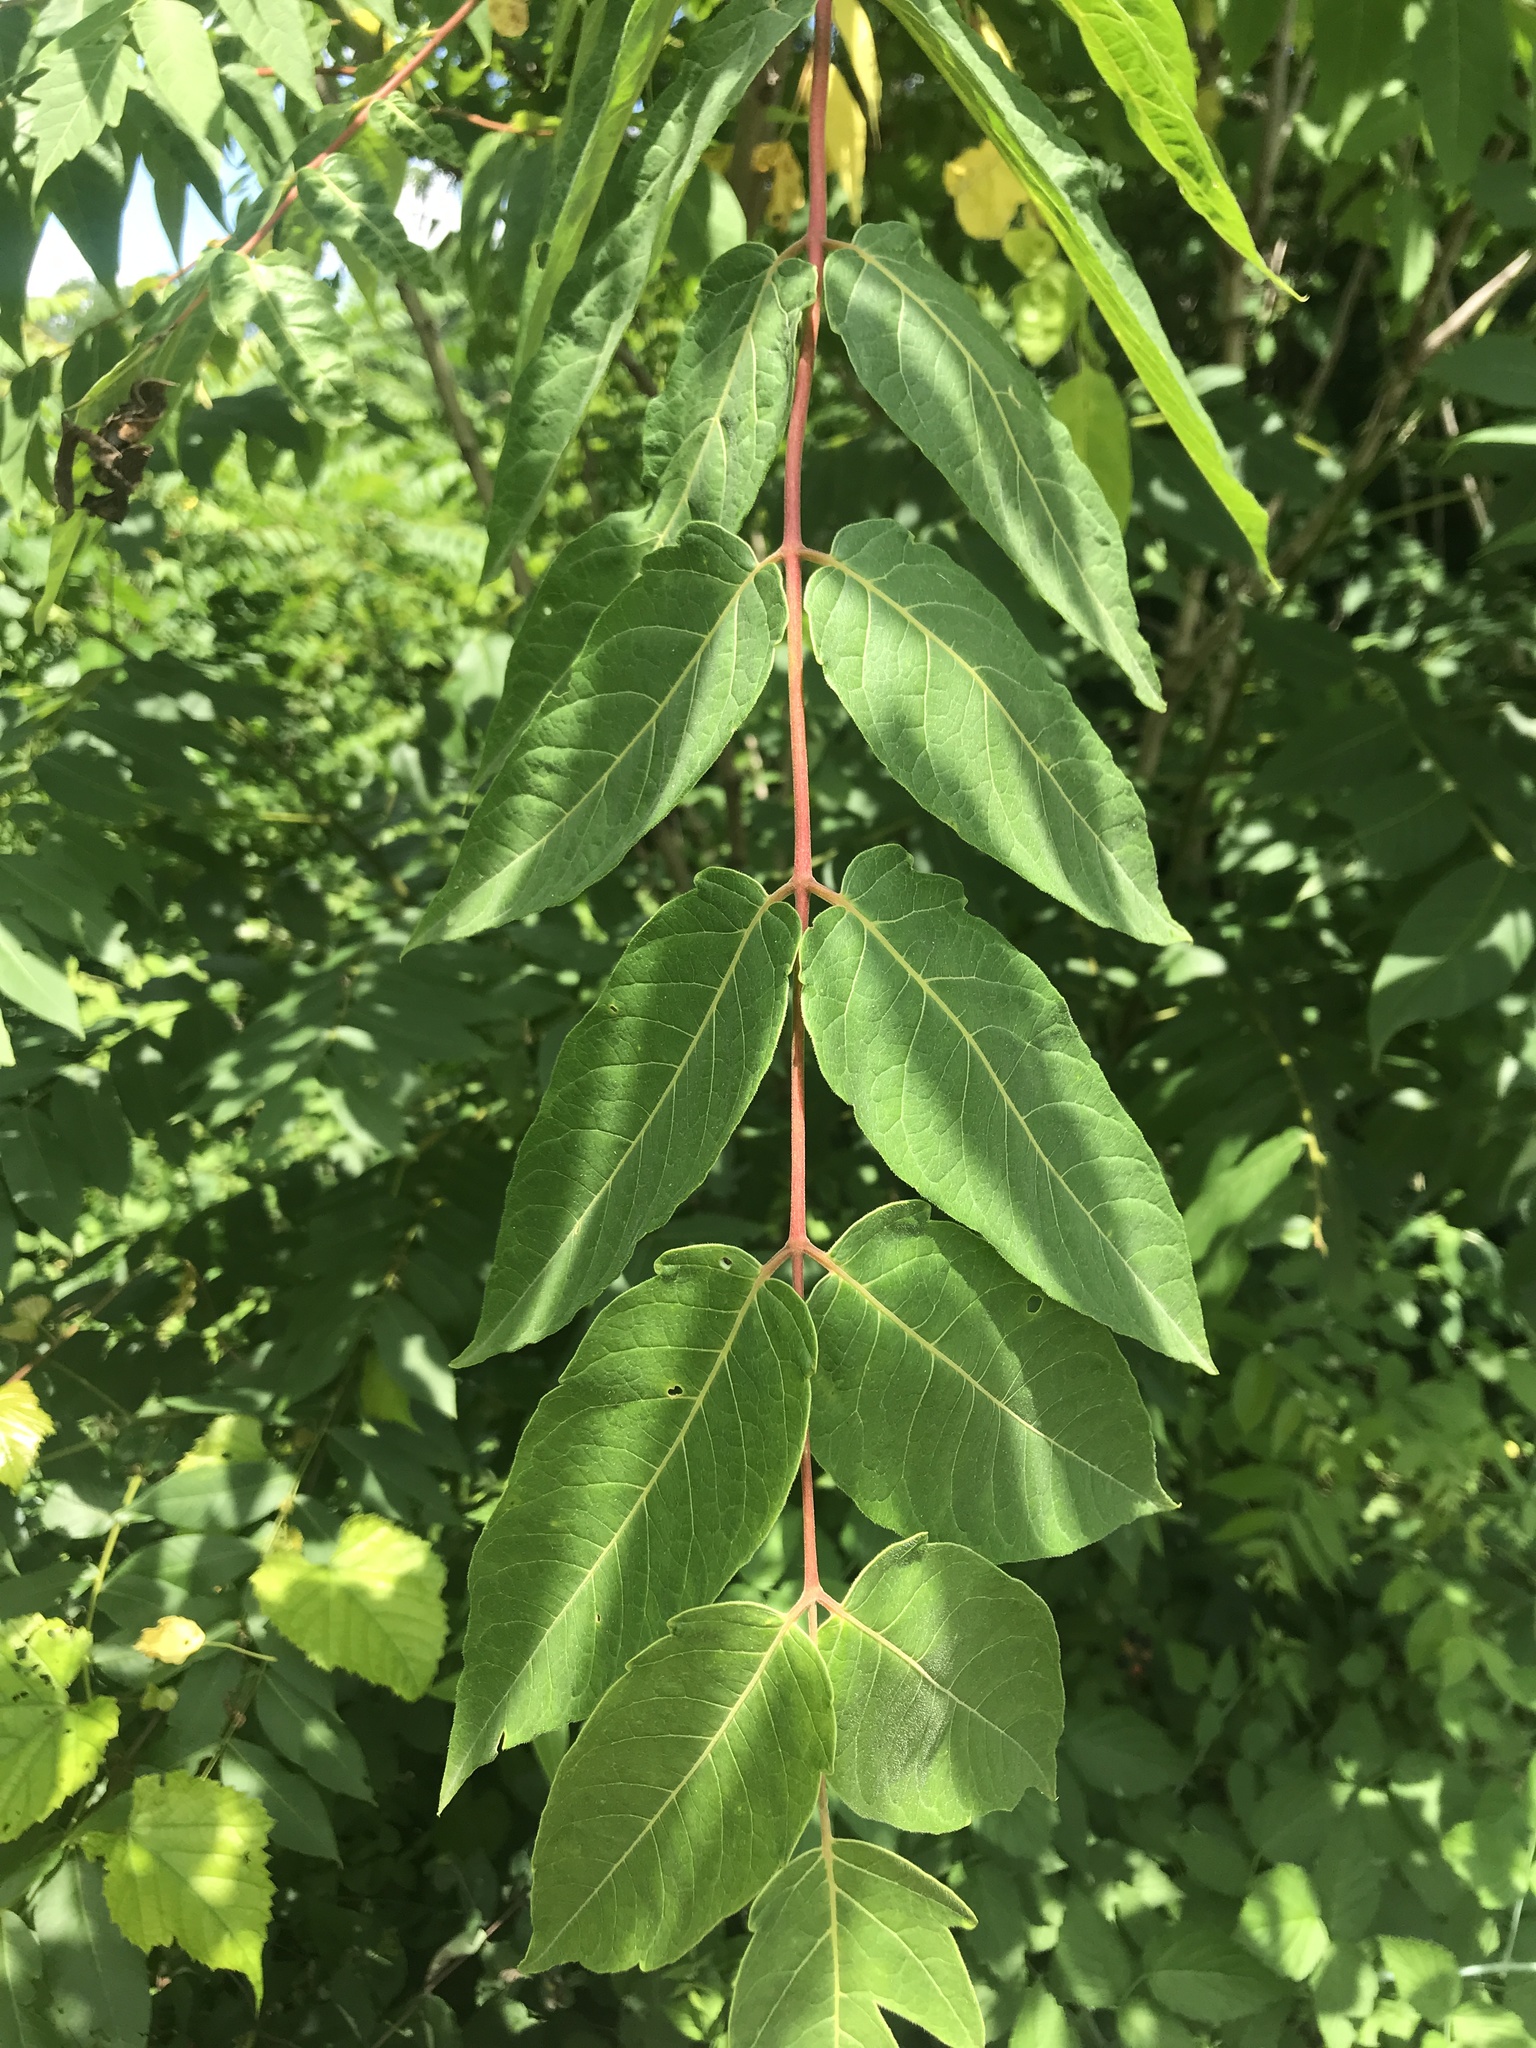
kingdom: Plantae
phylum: Tracheophyta
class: Magnoliopsida
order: Sapindales
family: Simaroubaceae
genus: Ailanthus
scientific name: Ailanthus altissima
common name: Tree-of-heaven
